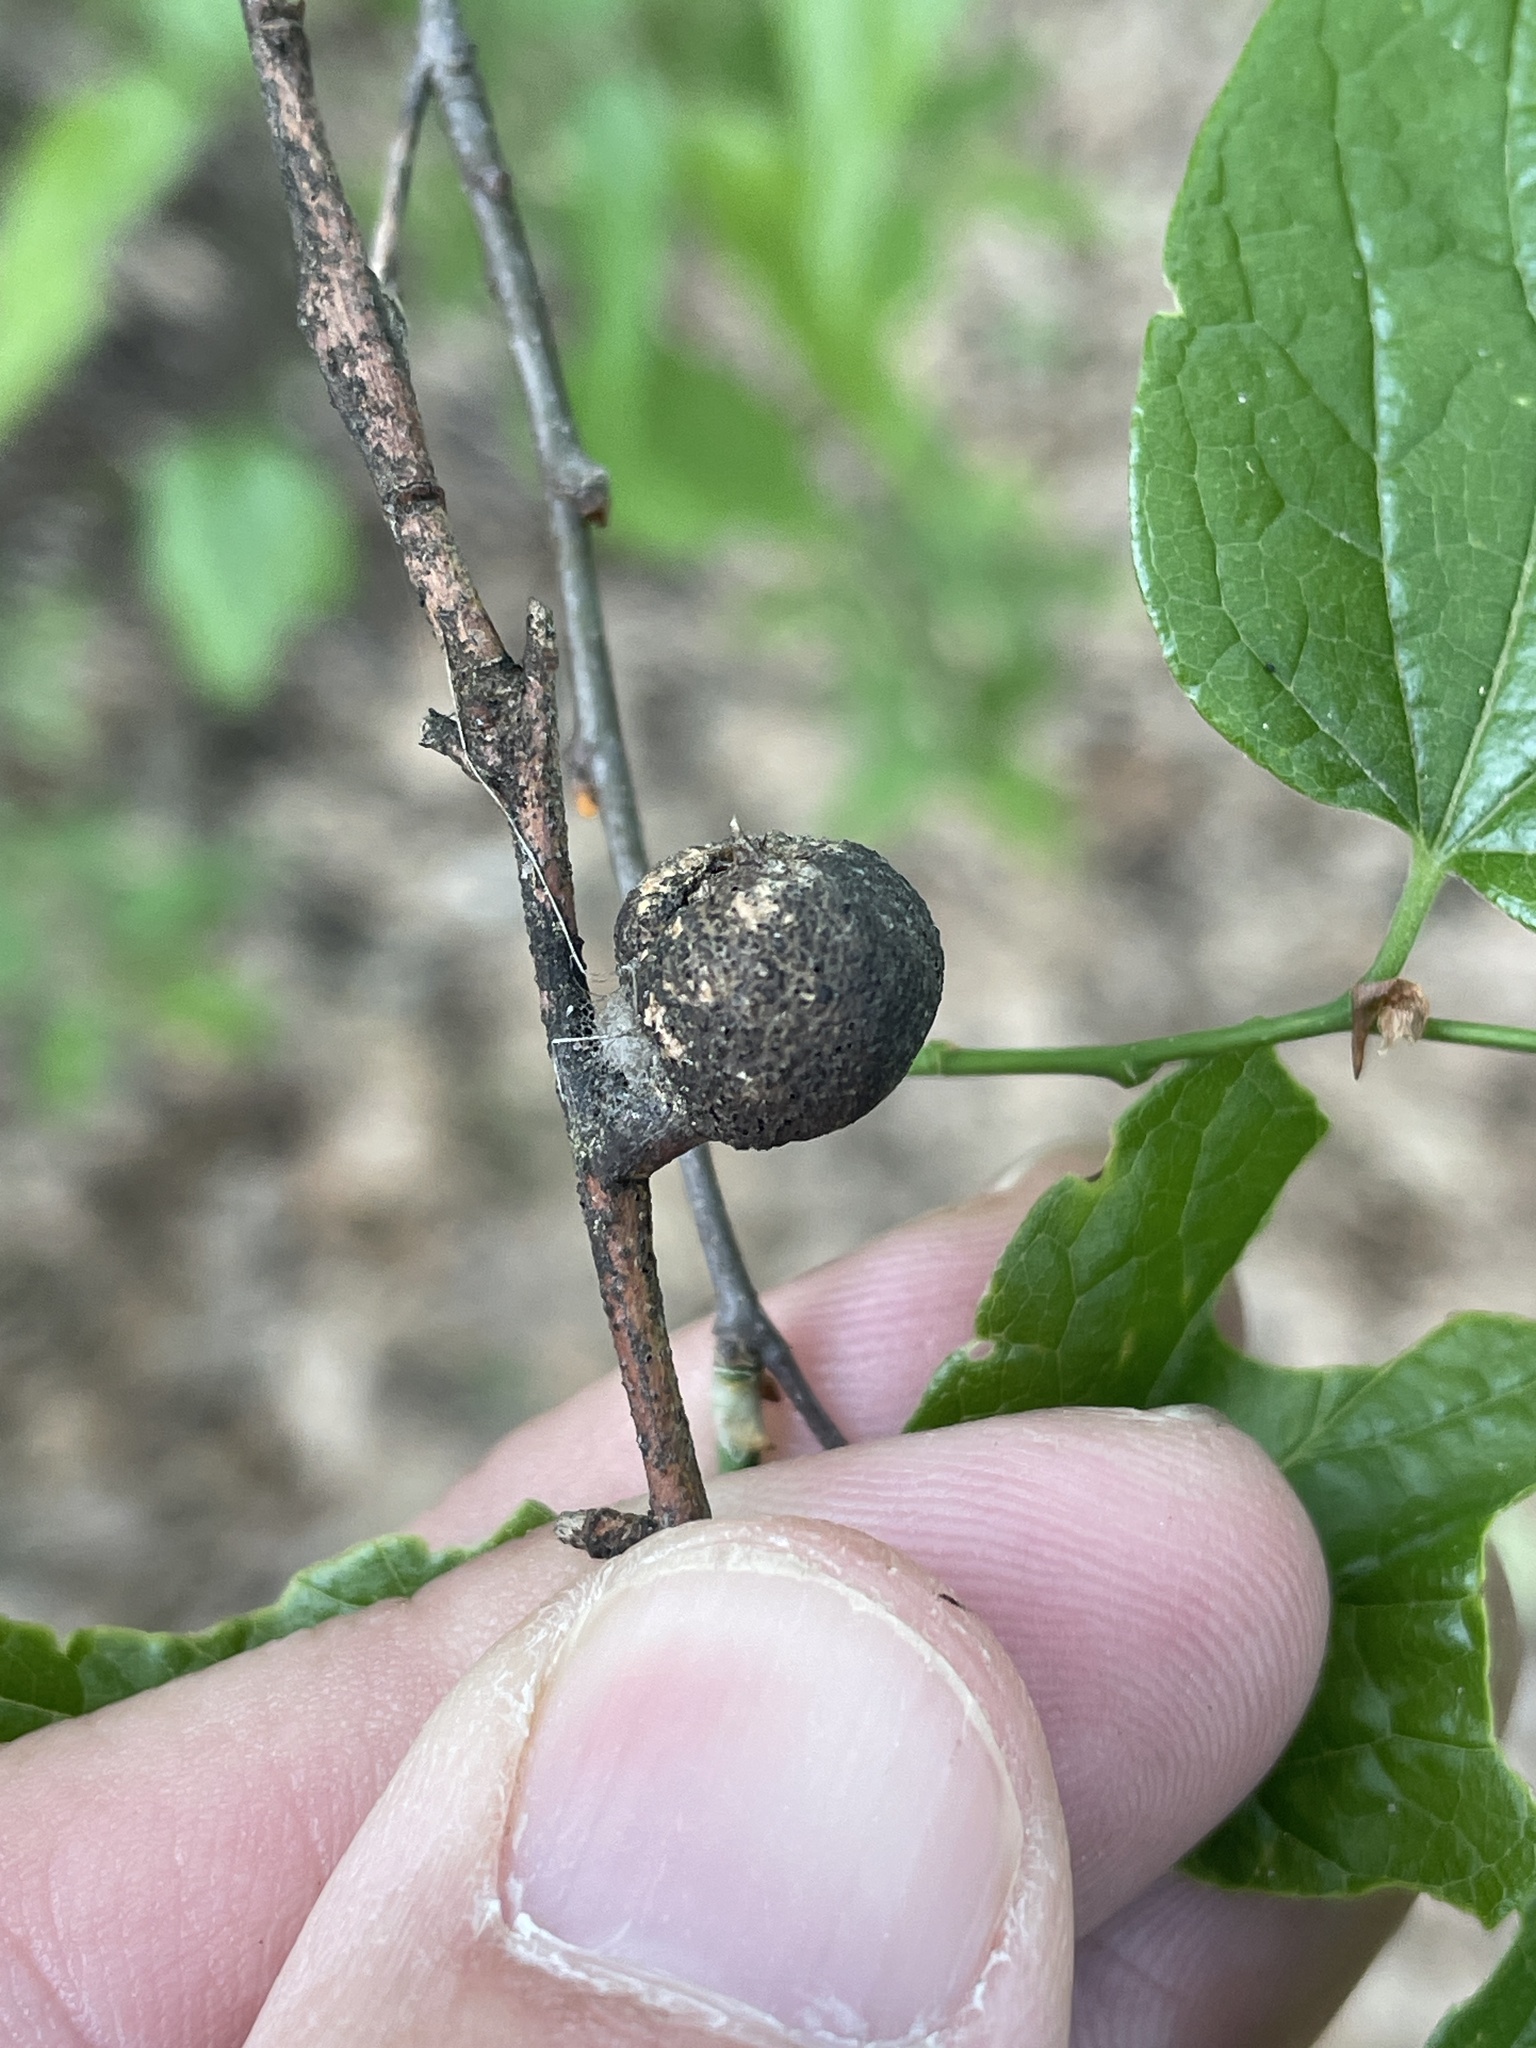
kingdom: Animalia
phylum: Arthropoda
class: Insecta
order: Hemiptera
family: Aphalaridae
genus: Pachypsylla
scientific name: Pachypsylla venusta
